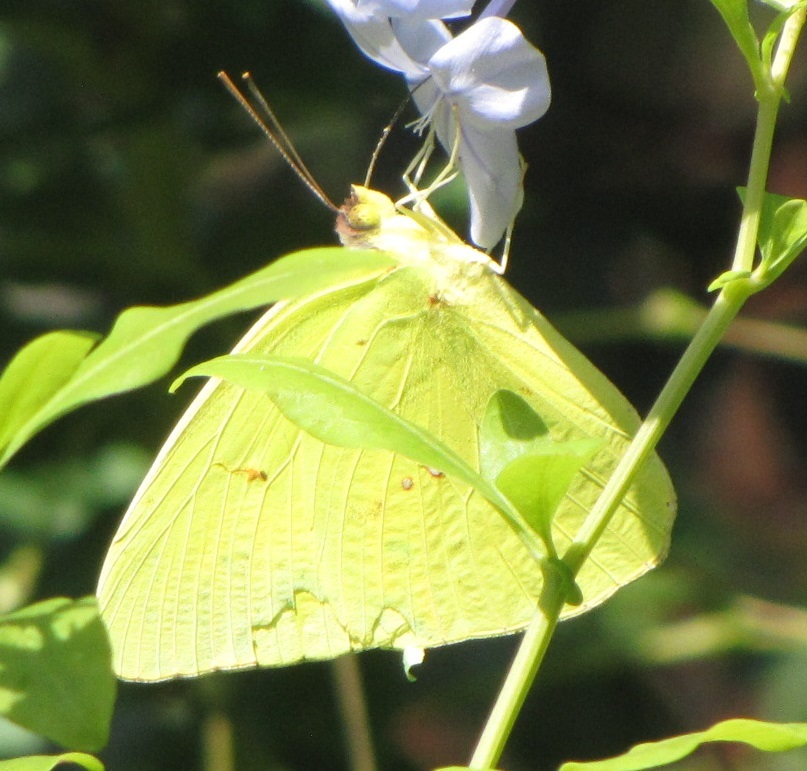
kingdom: Animalia
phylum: Arthropoda
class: Insecta
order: Lepidoptera
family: Pieridae
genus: Phoebis
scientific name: Phoebis sennae
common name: Cloudless sulphur
